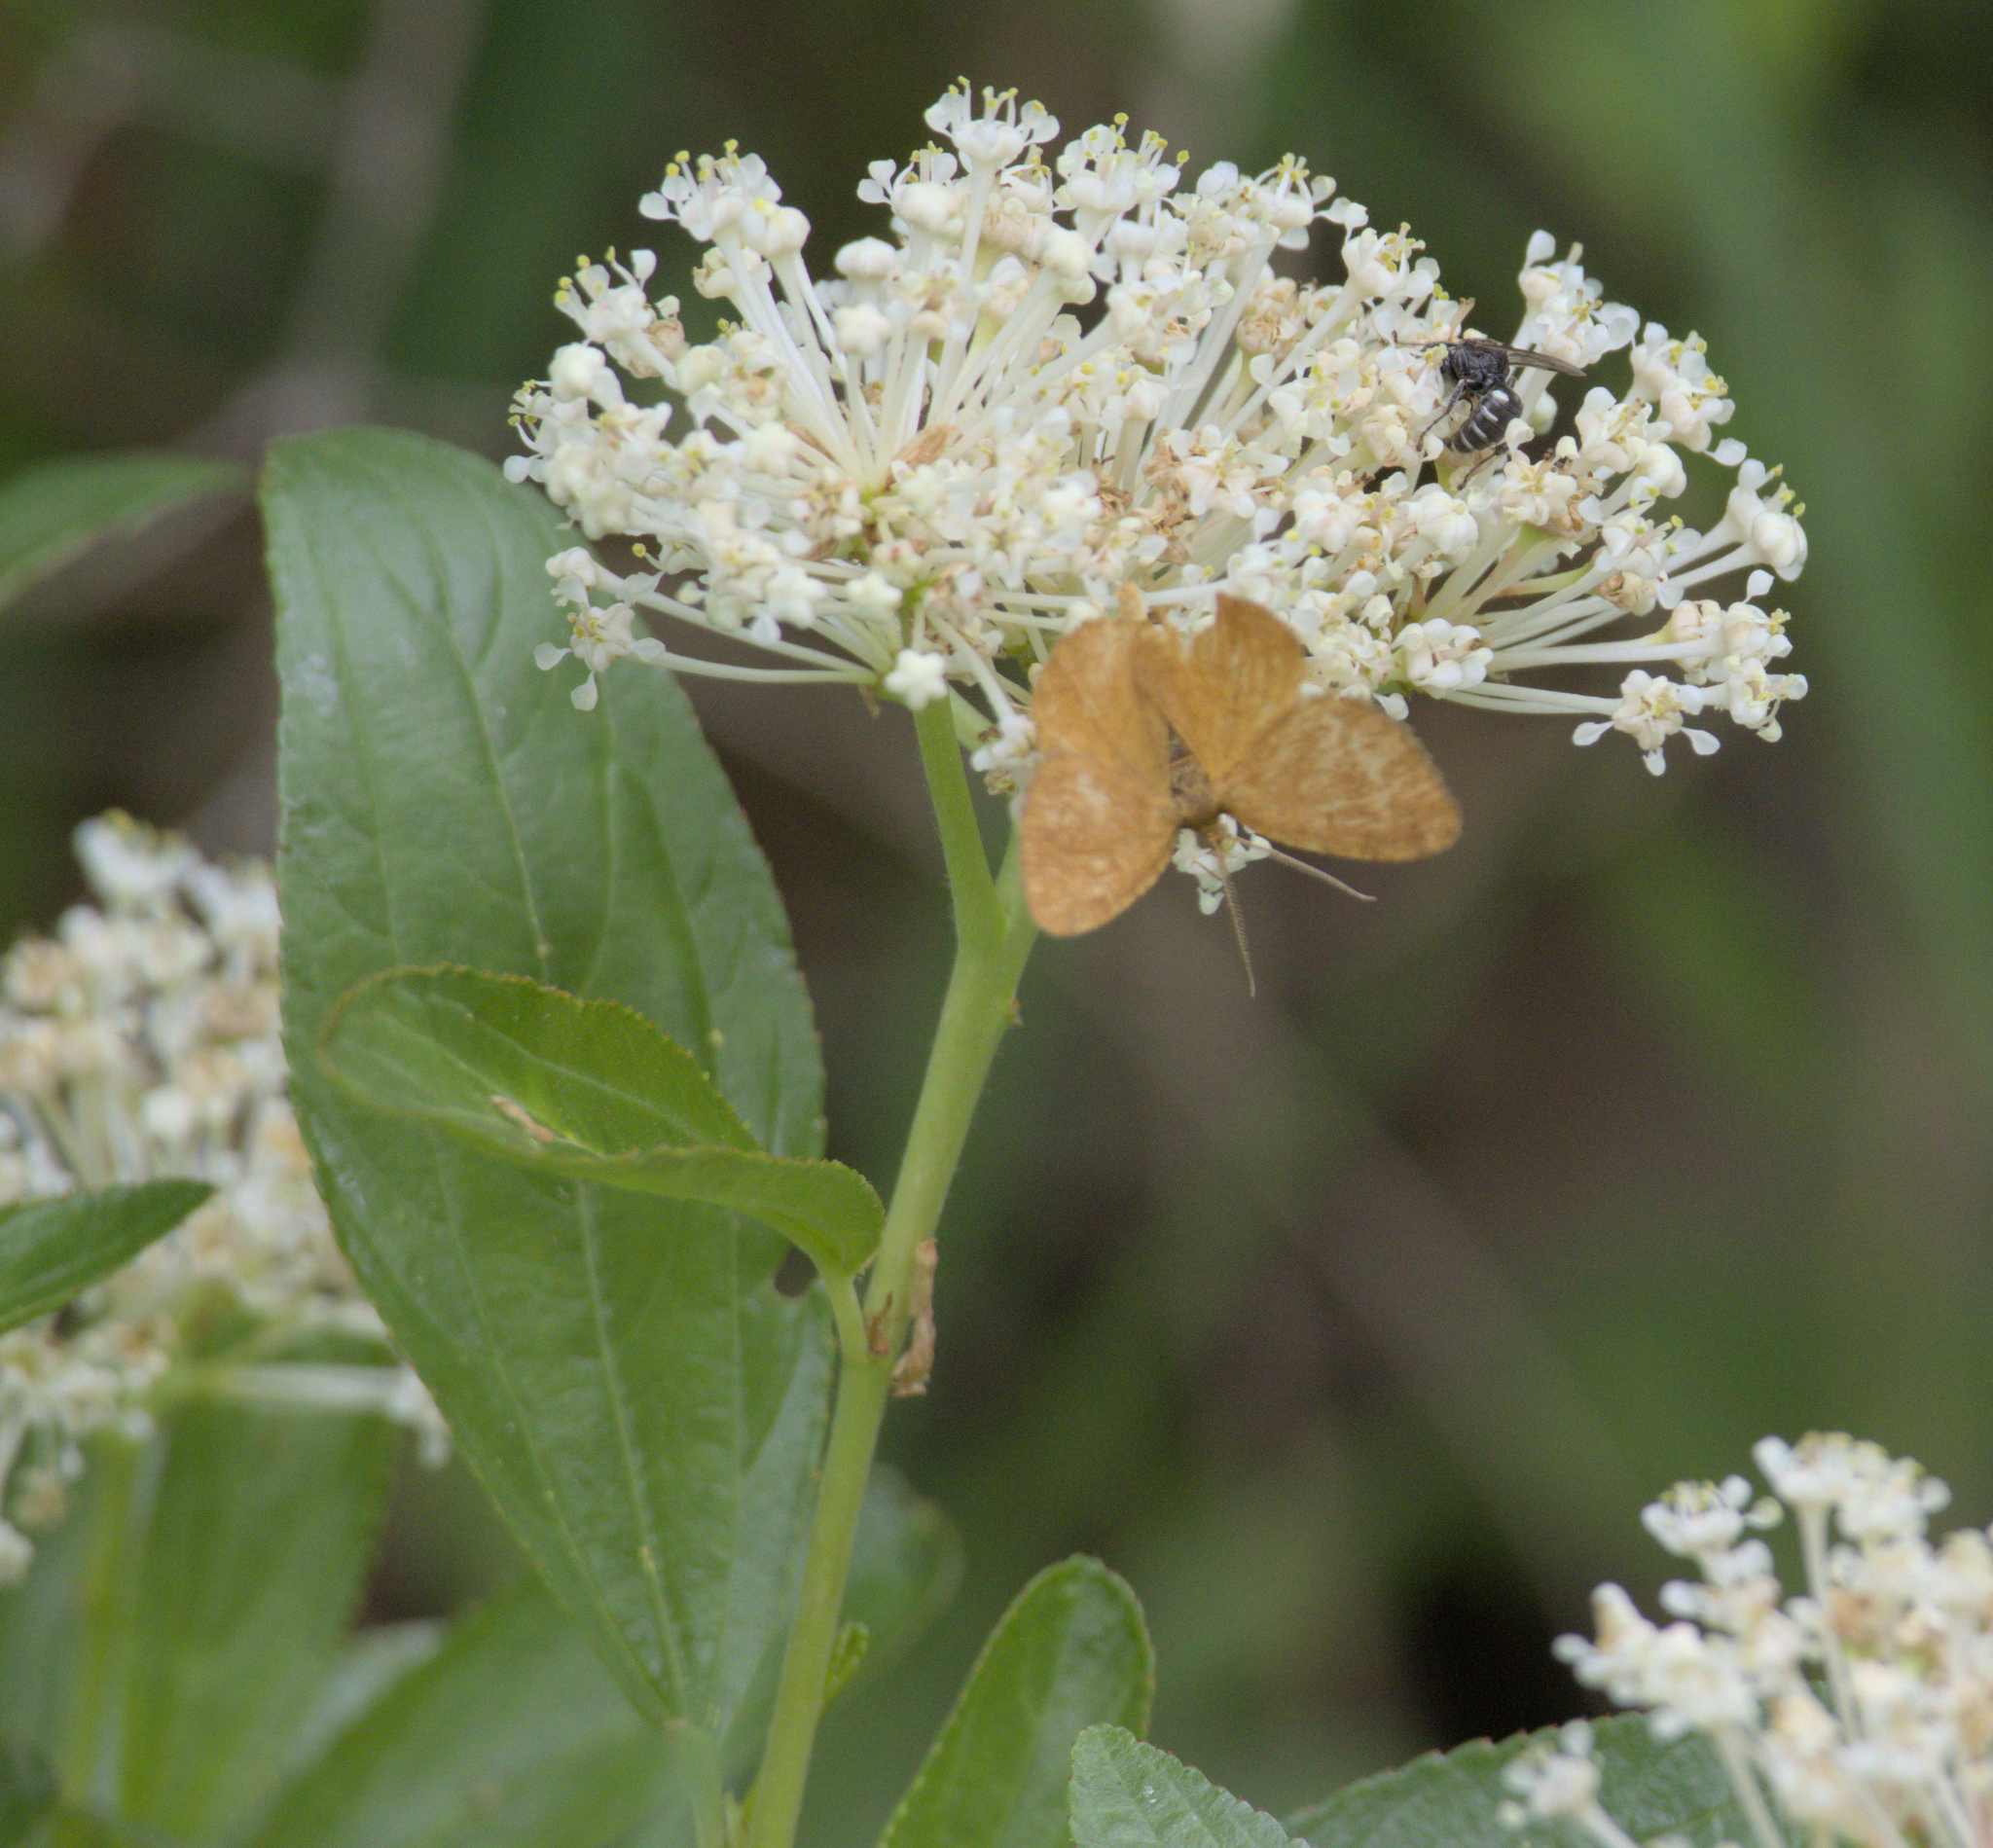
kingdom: Plantae
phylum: Tracheophyta
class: Magnoliopsida
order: Rosales
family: Rhamnaceae
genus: Ceanothus
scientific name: Ceanothus herbaceus
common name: Inland ceanothus
